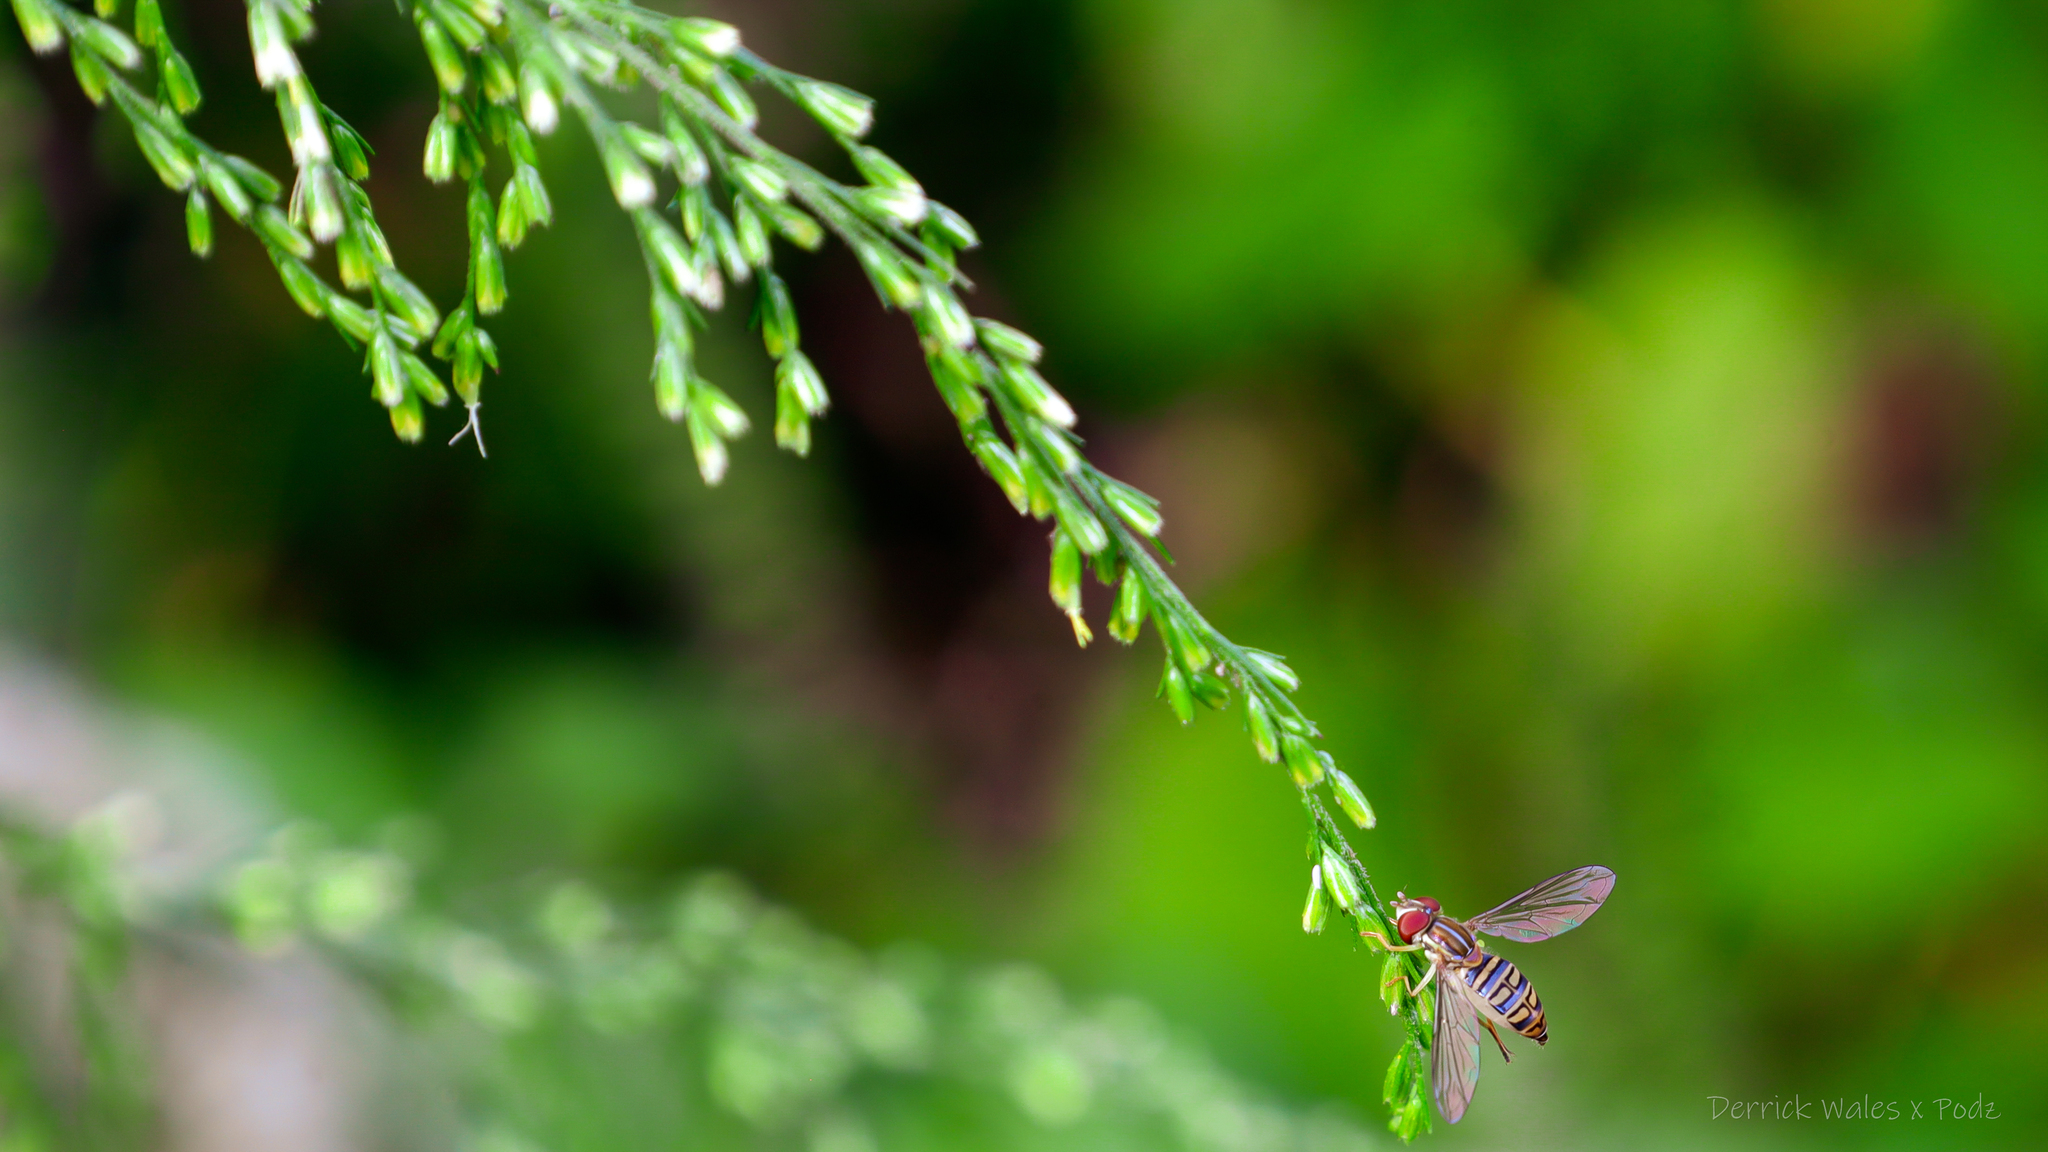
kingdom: Plantae
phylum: Tracheophyta
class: Magnoliopsida
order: Asterales
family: Asteraceae
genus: Eupatorium
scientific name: Eupatorium capillifolium
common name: Dog-fennel
